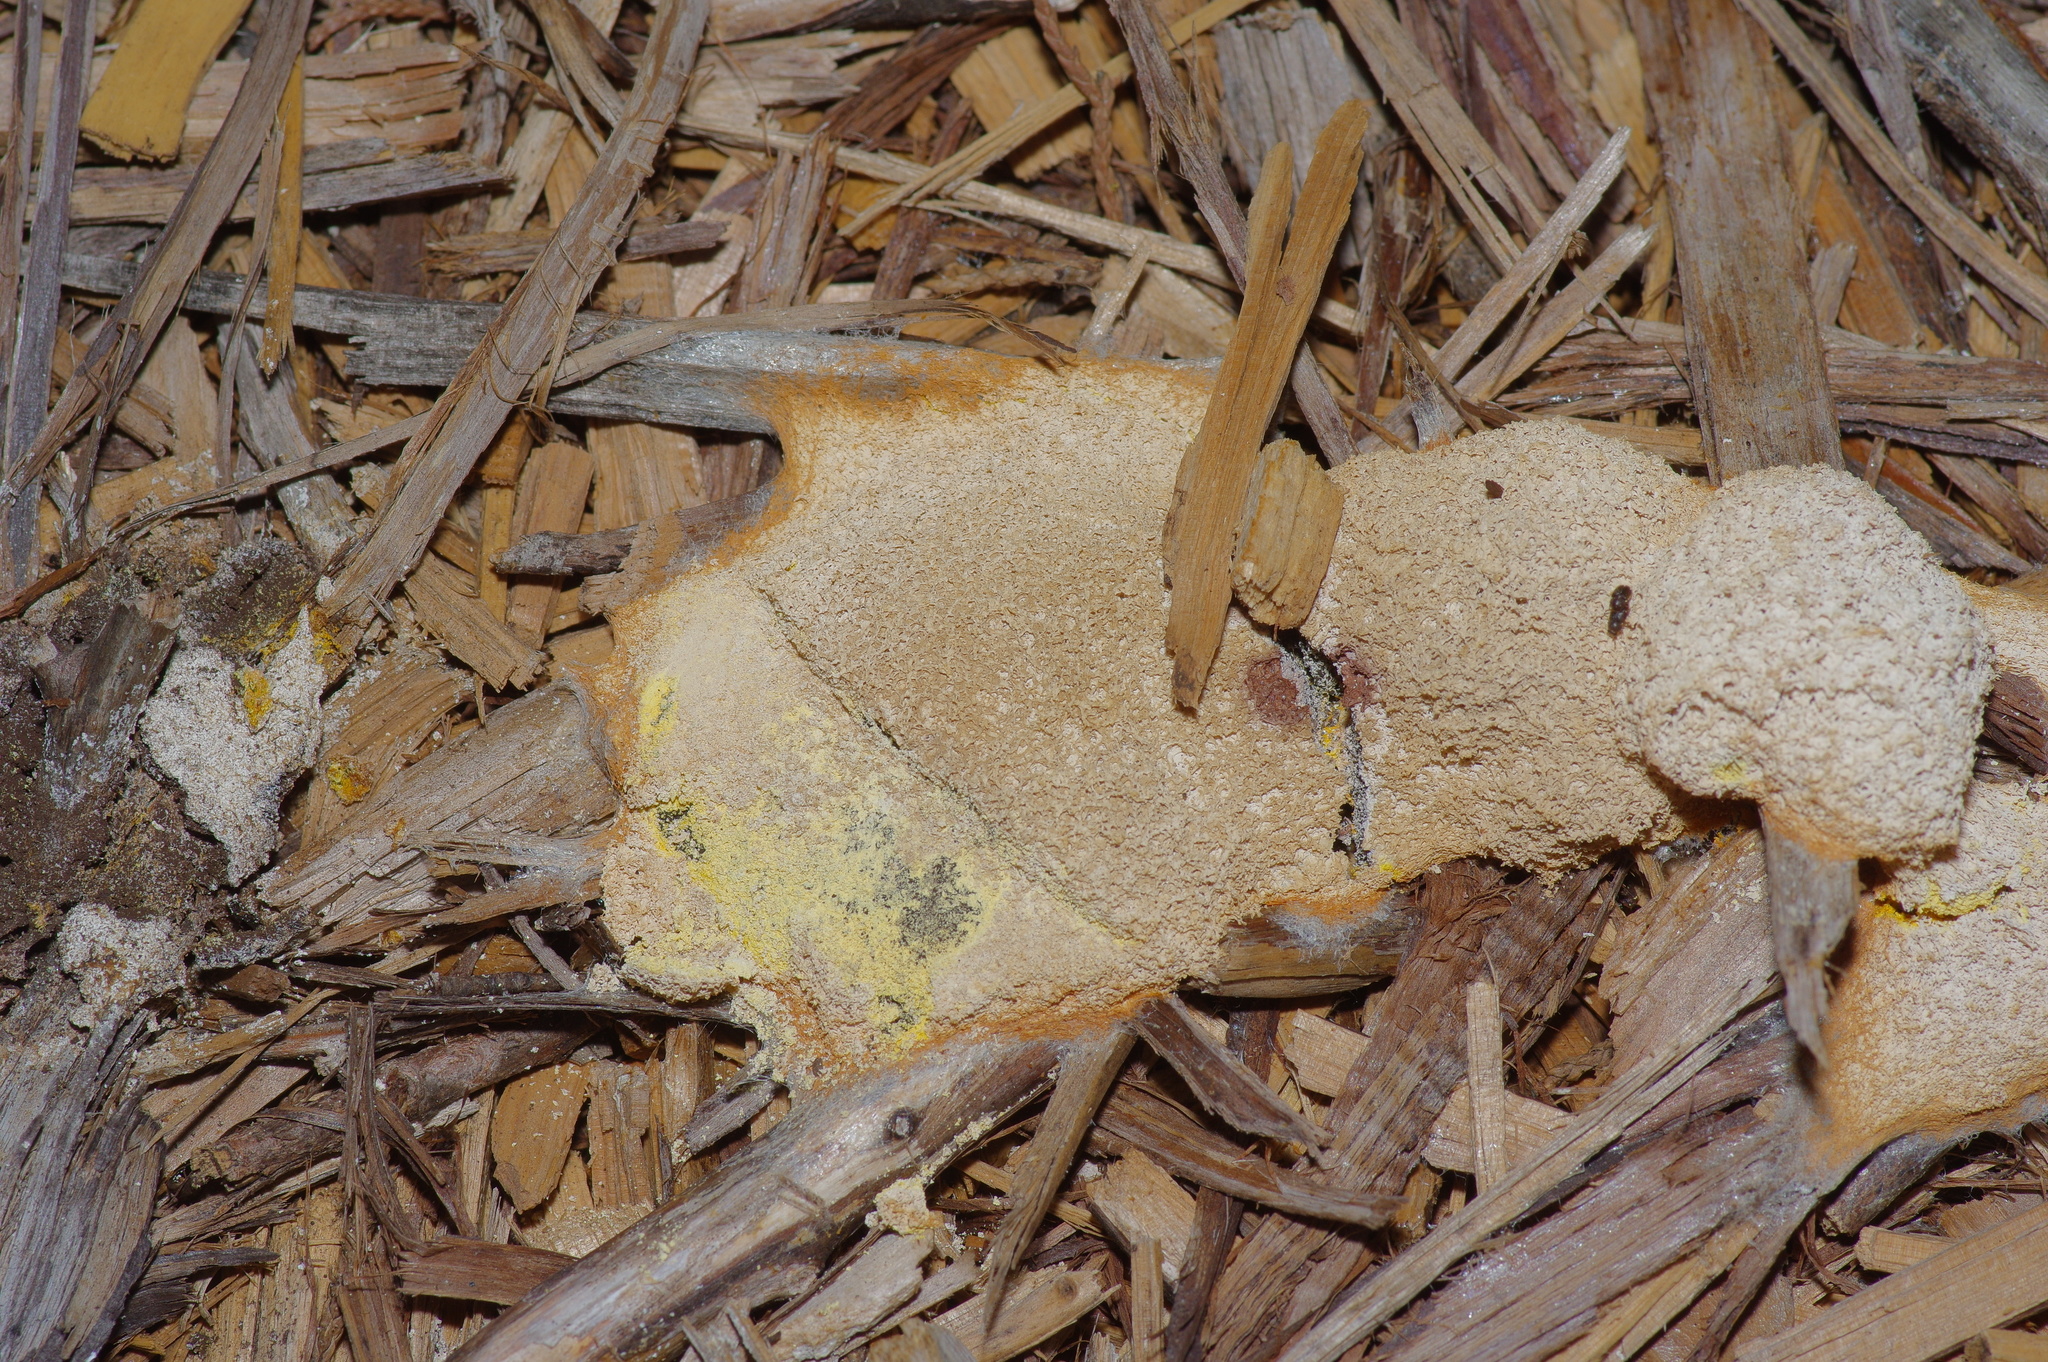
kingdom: Protozoa
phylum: Mycetozoa
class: Myxomycetes
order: Physarales
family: Physaraceae
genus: Fuligo
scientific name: Fuligo septica
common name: Dog vomit slime mold
